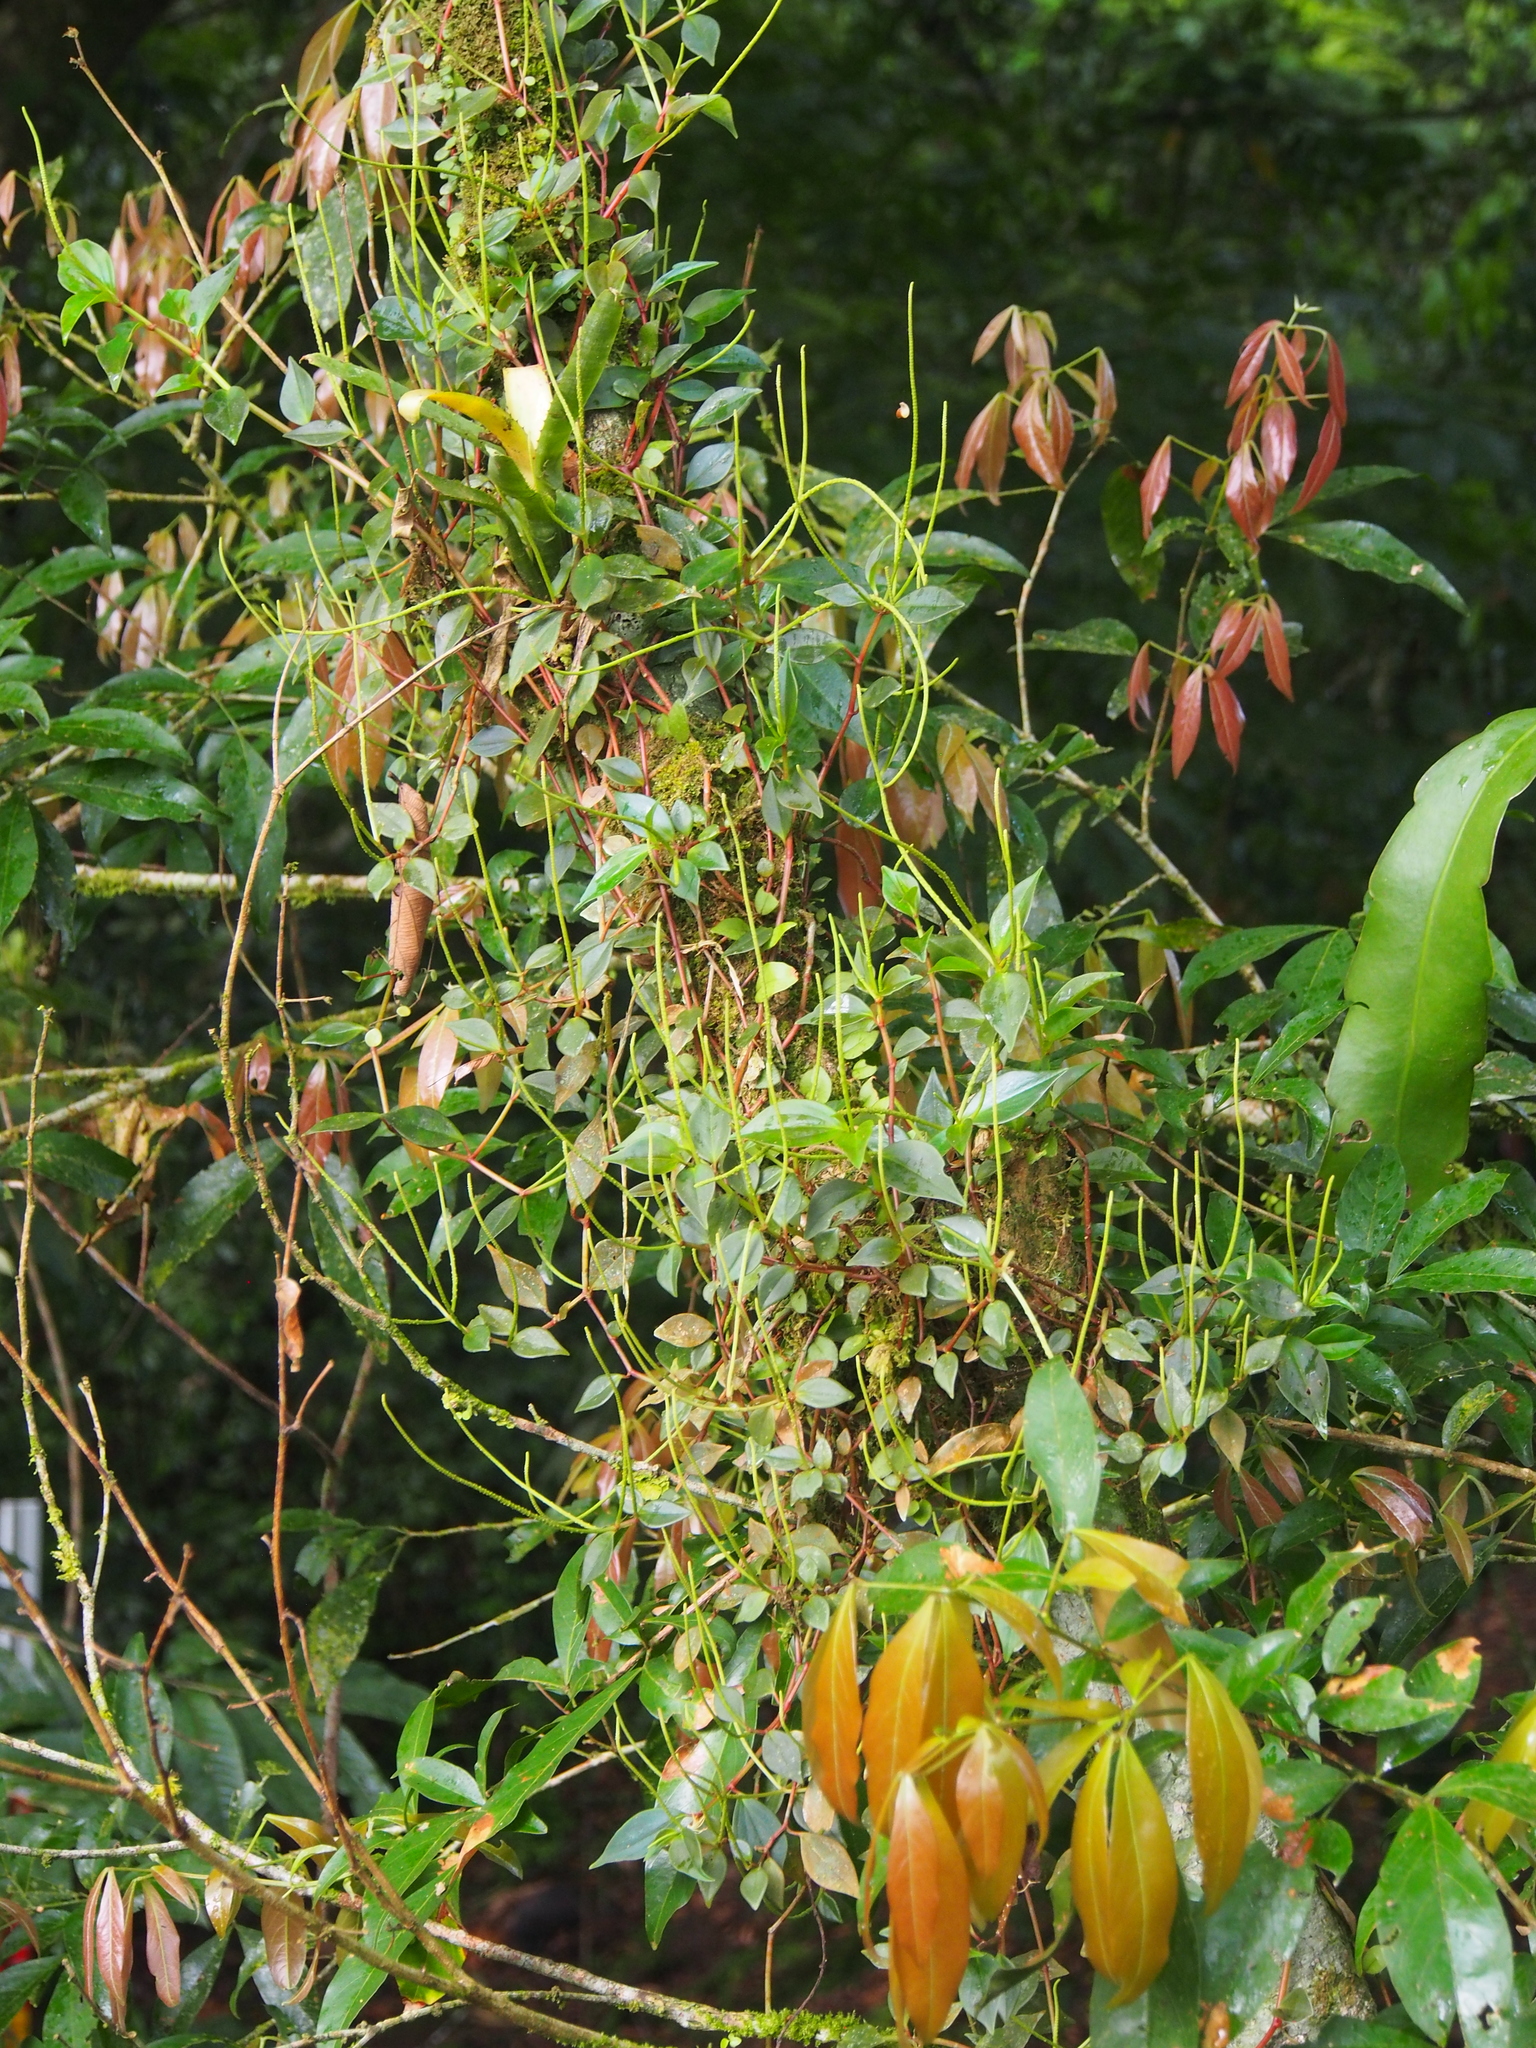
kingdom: Plantae
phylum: Tracheophyta
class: Magnoliopsida
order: Piperales
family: Piperaceae
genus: Peperomia
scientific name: Peperomia glabella
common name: Cypress peperomia
